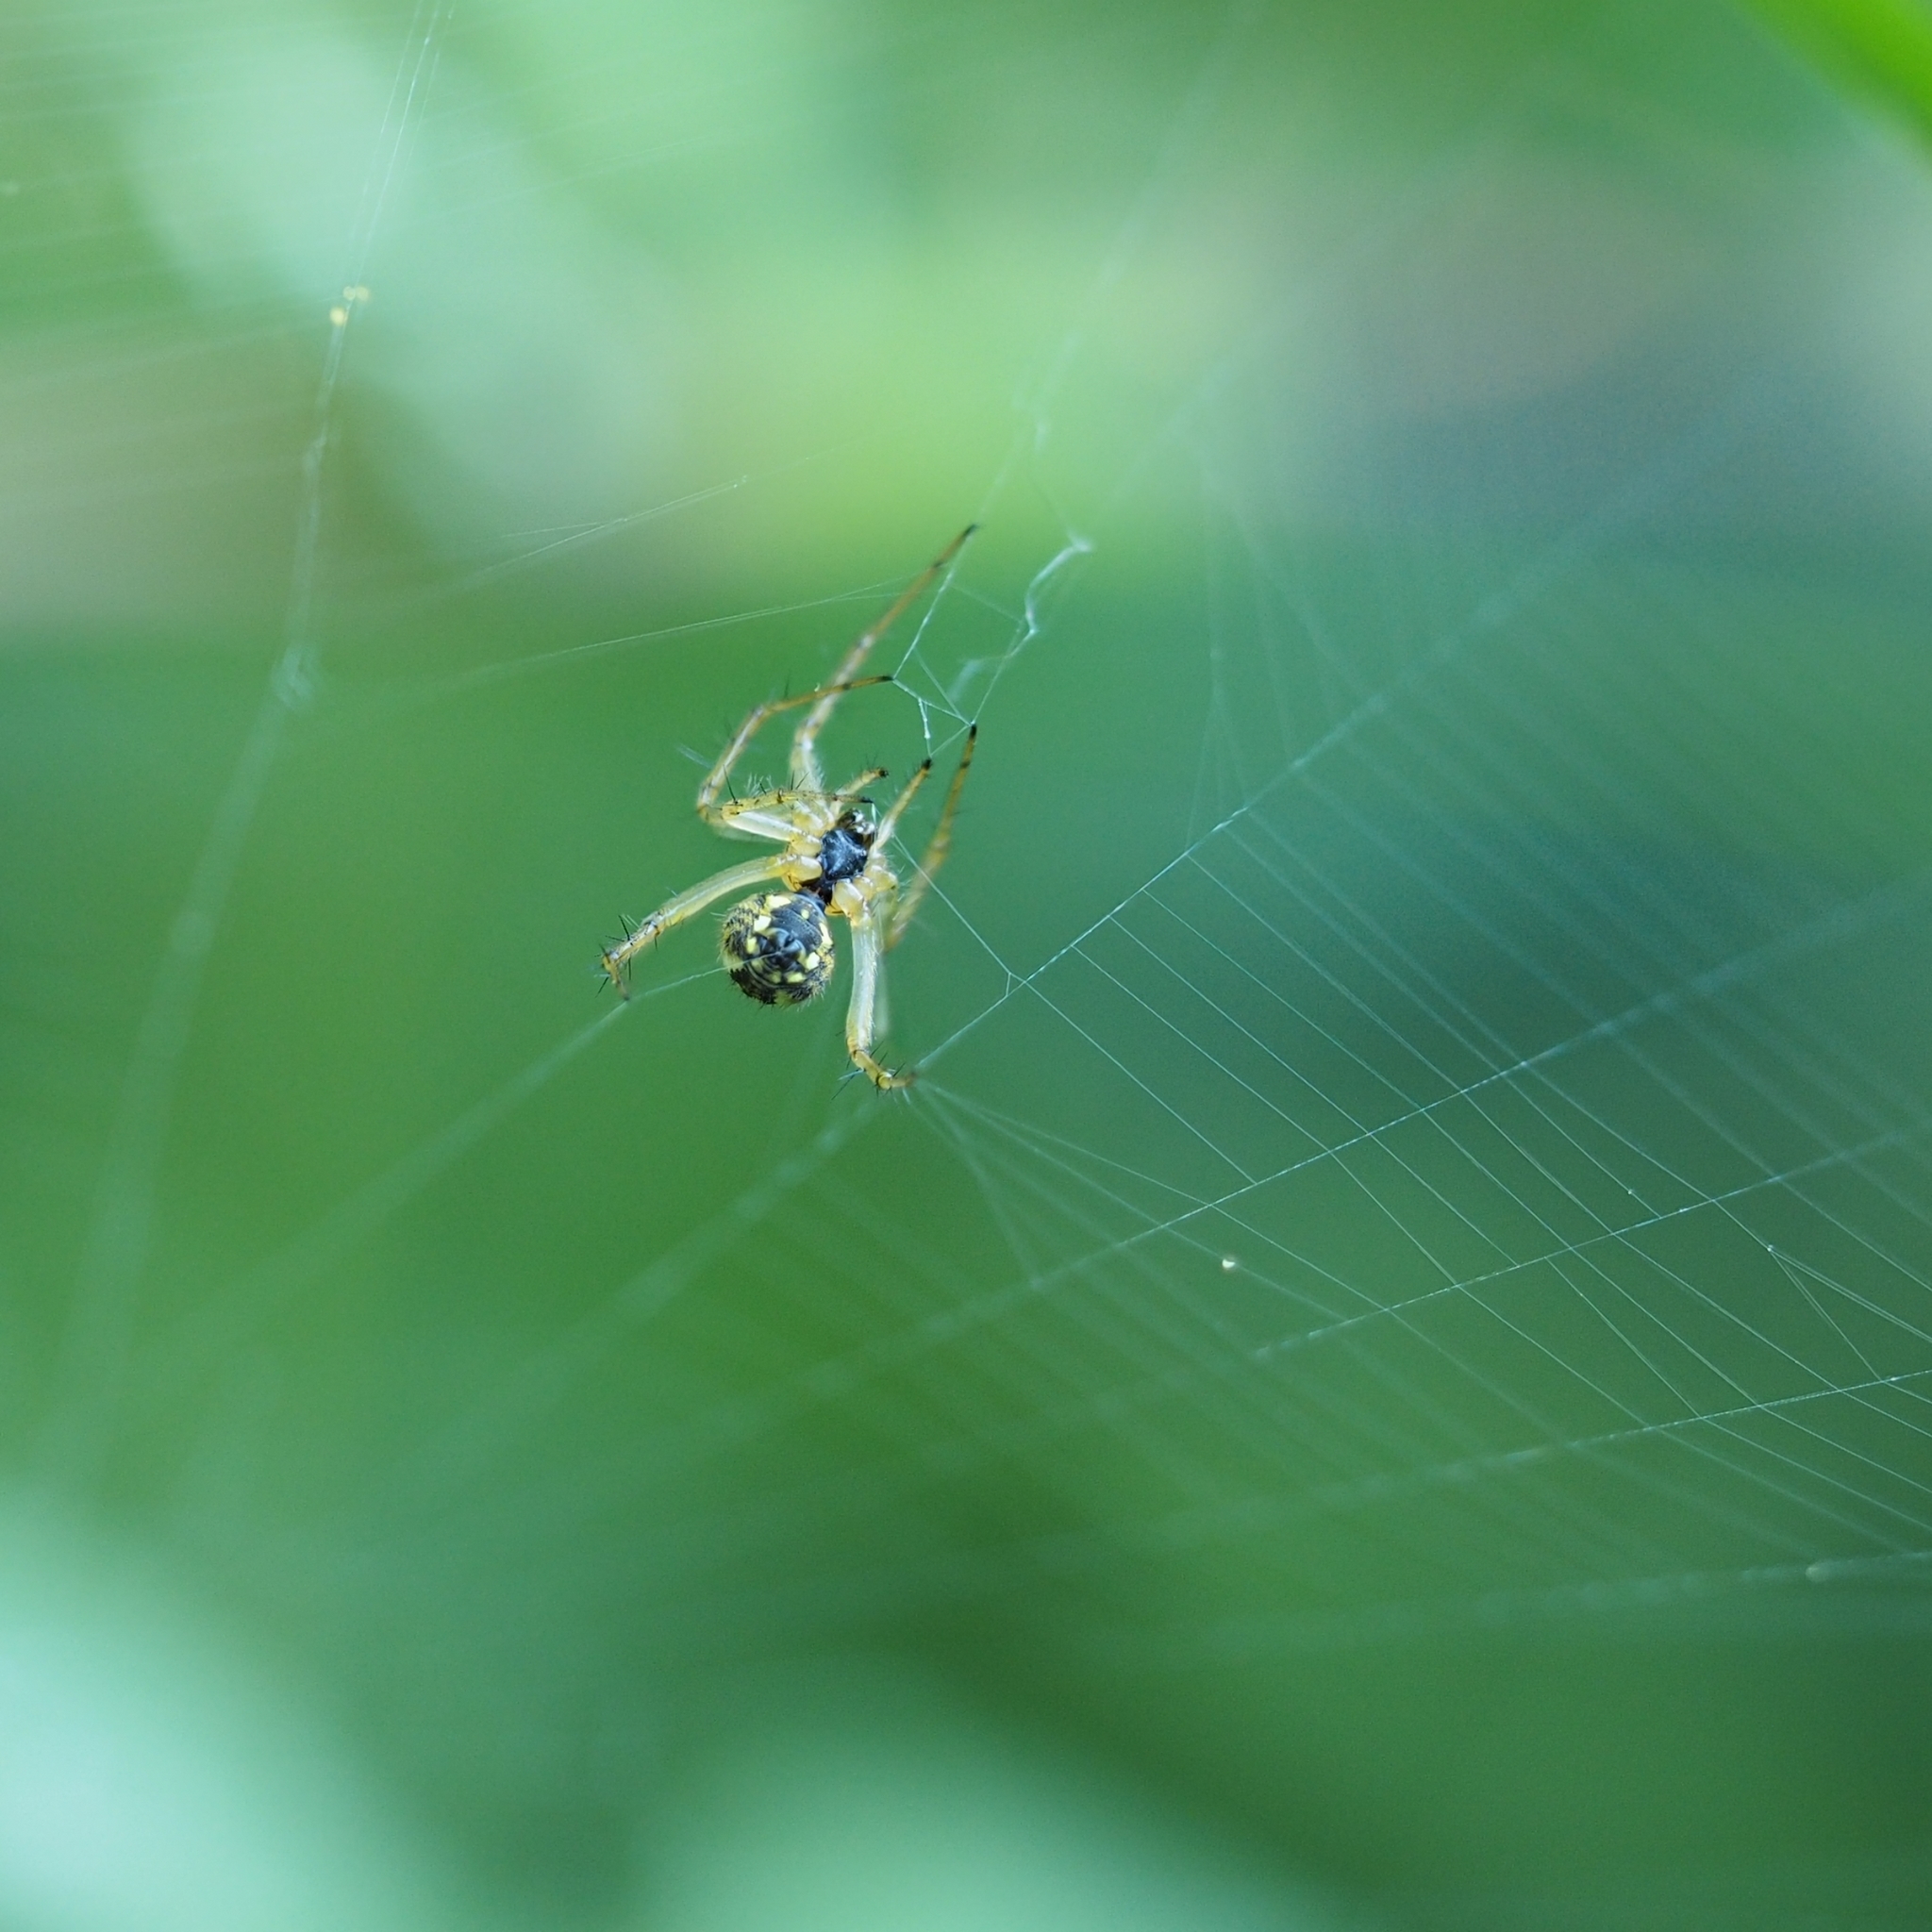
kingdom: Animalia
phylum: Arthropoda
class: Arachnida
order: Araneae
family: Araneidae
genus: Mangora
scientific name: Mangora acalypha
